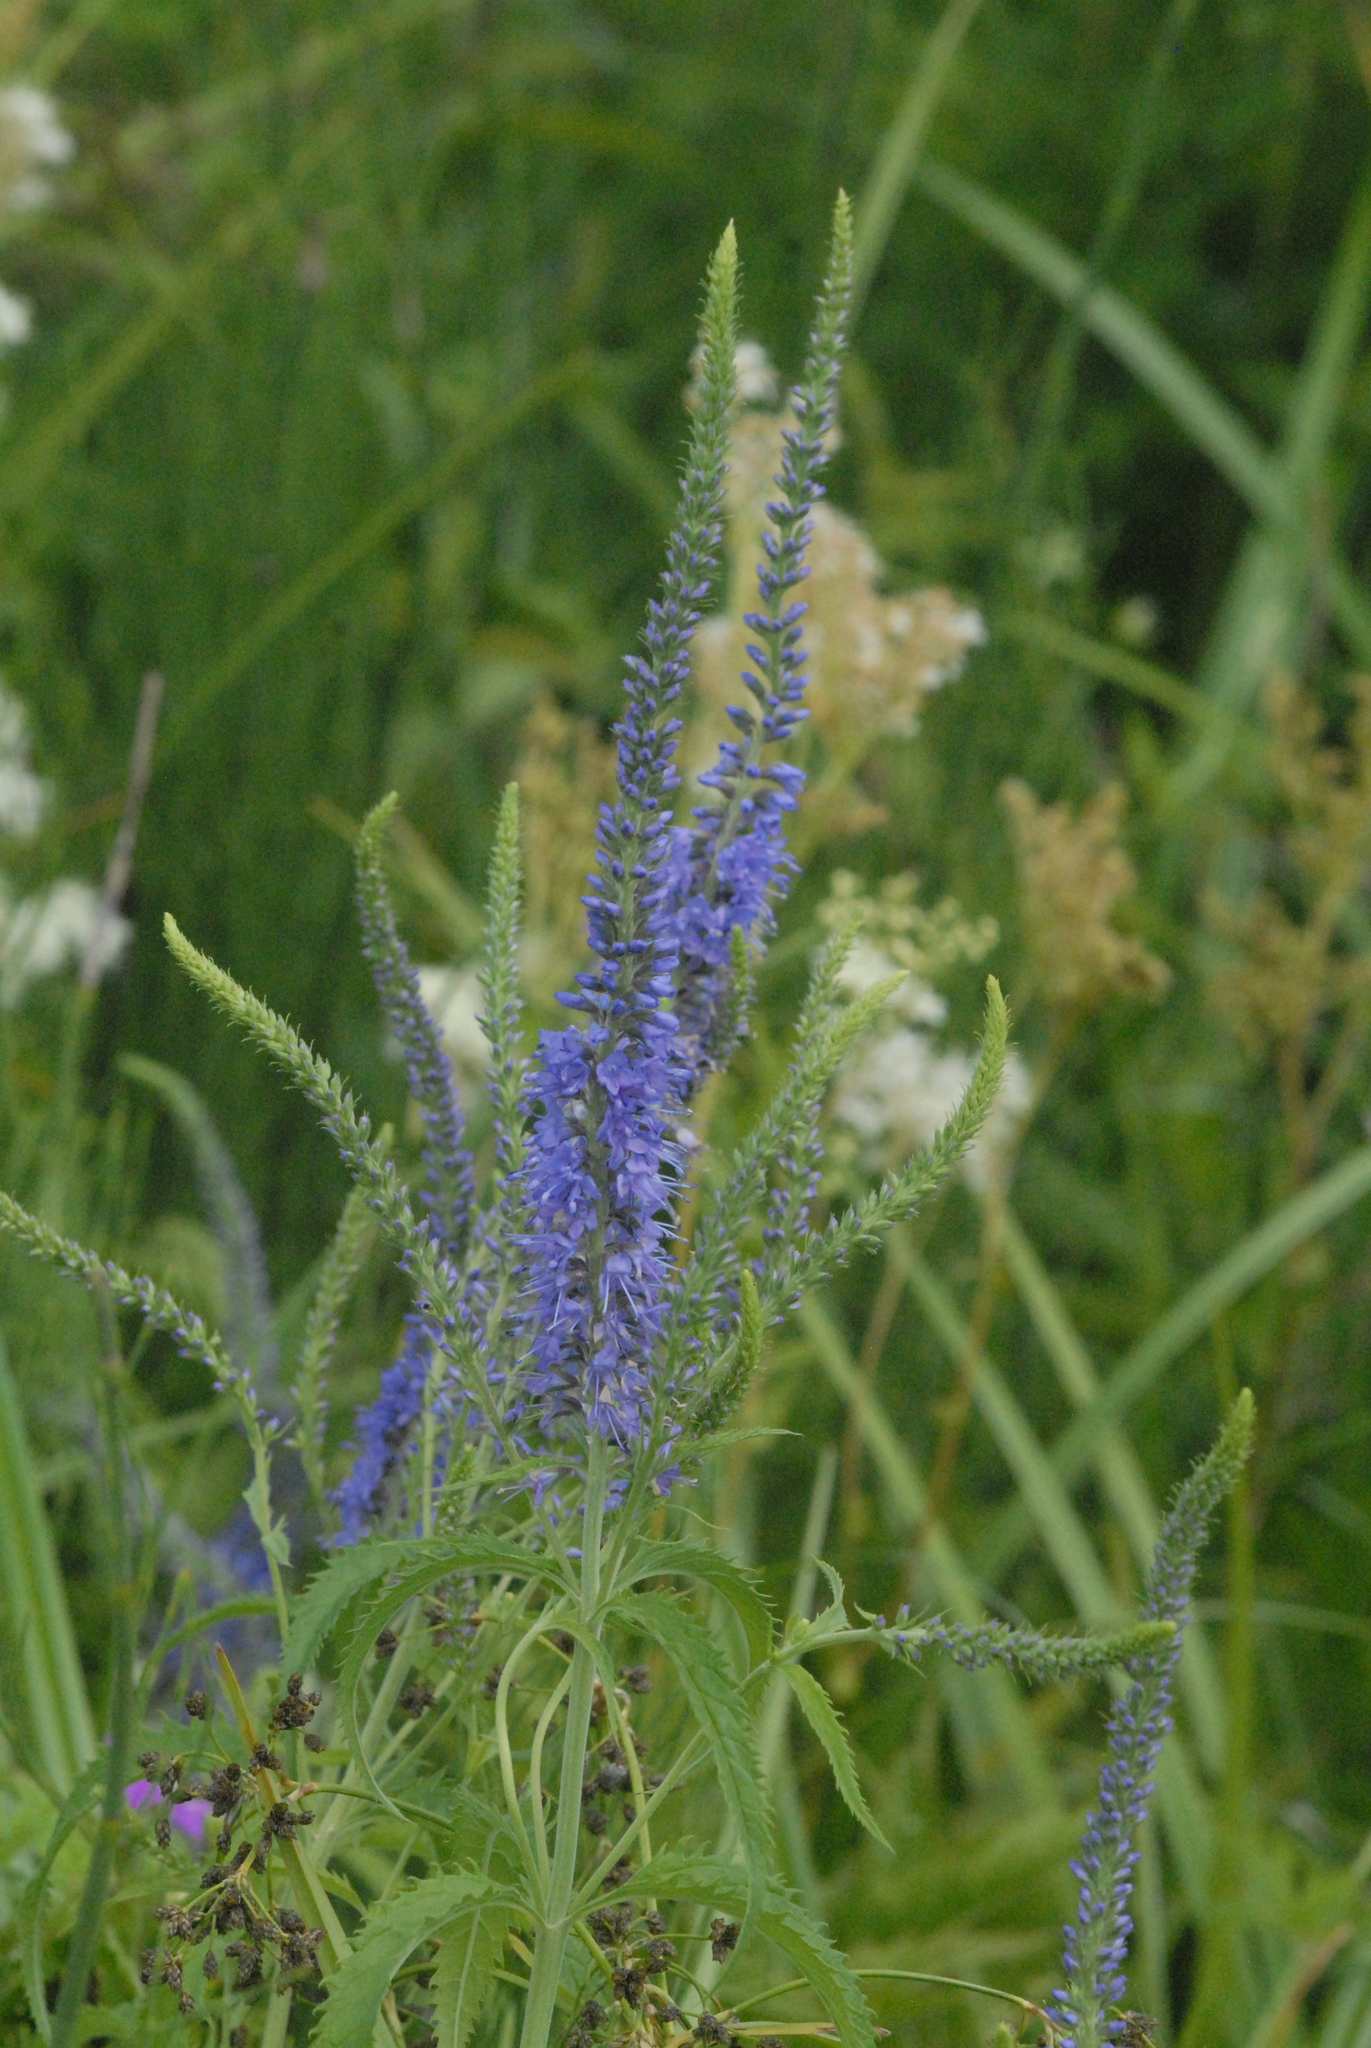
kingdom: Plantae
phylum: Tracheophyta
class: Magnoliopsida
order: Lamiales
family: Plantaginaceae
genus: Veronica
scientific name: Veronica longifolia
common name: Garden speedwell
